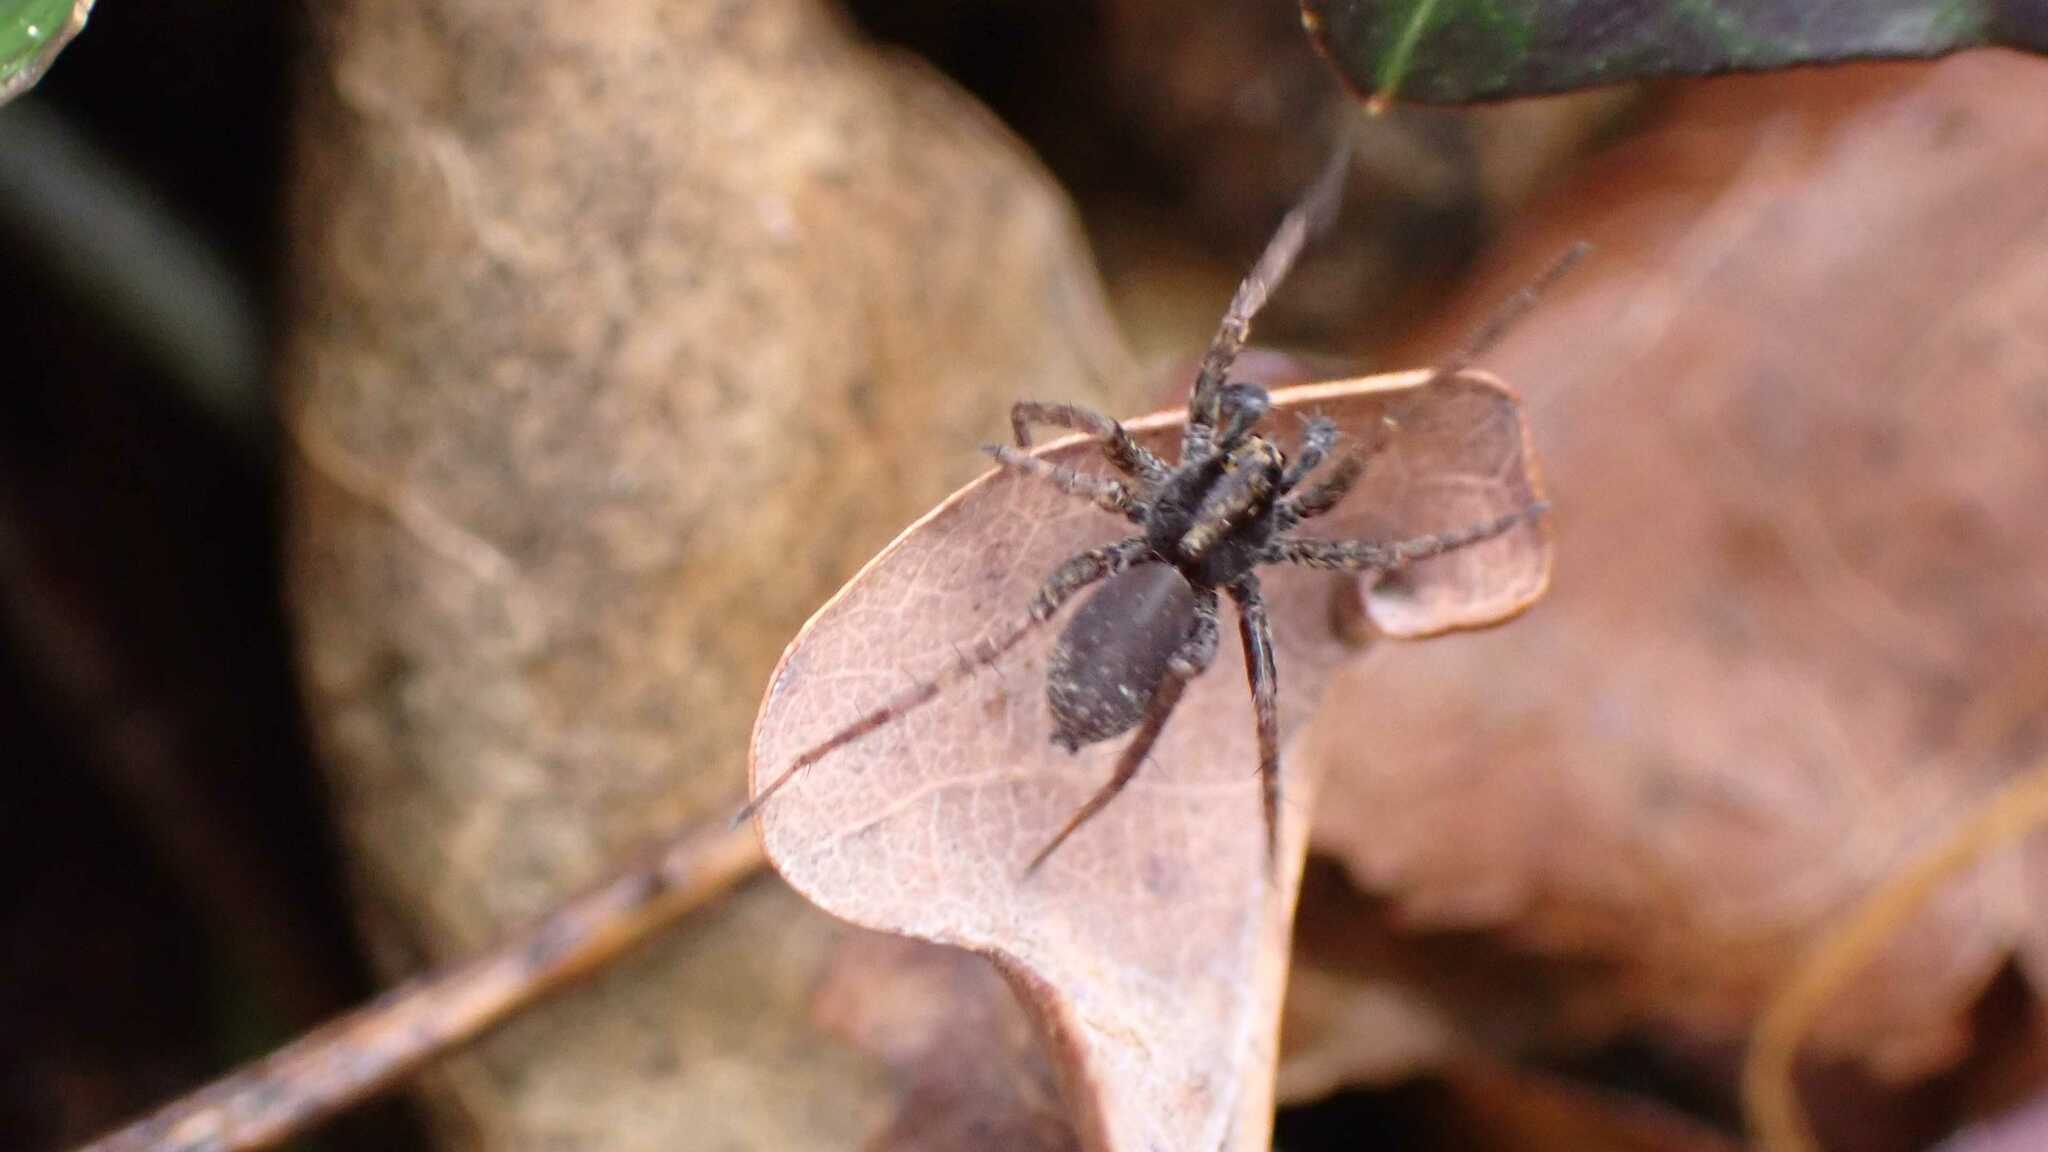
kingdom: Animalia
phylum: Arthropoda
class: Arachnida
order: Araneae
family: Lycosidae
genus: Pardosa
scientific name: Pardosa
